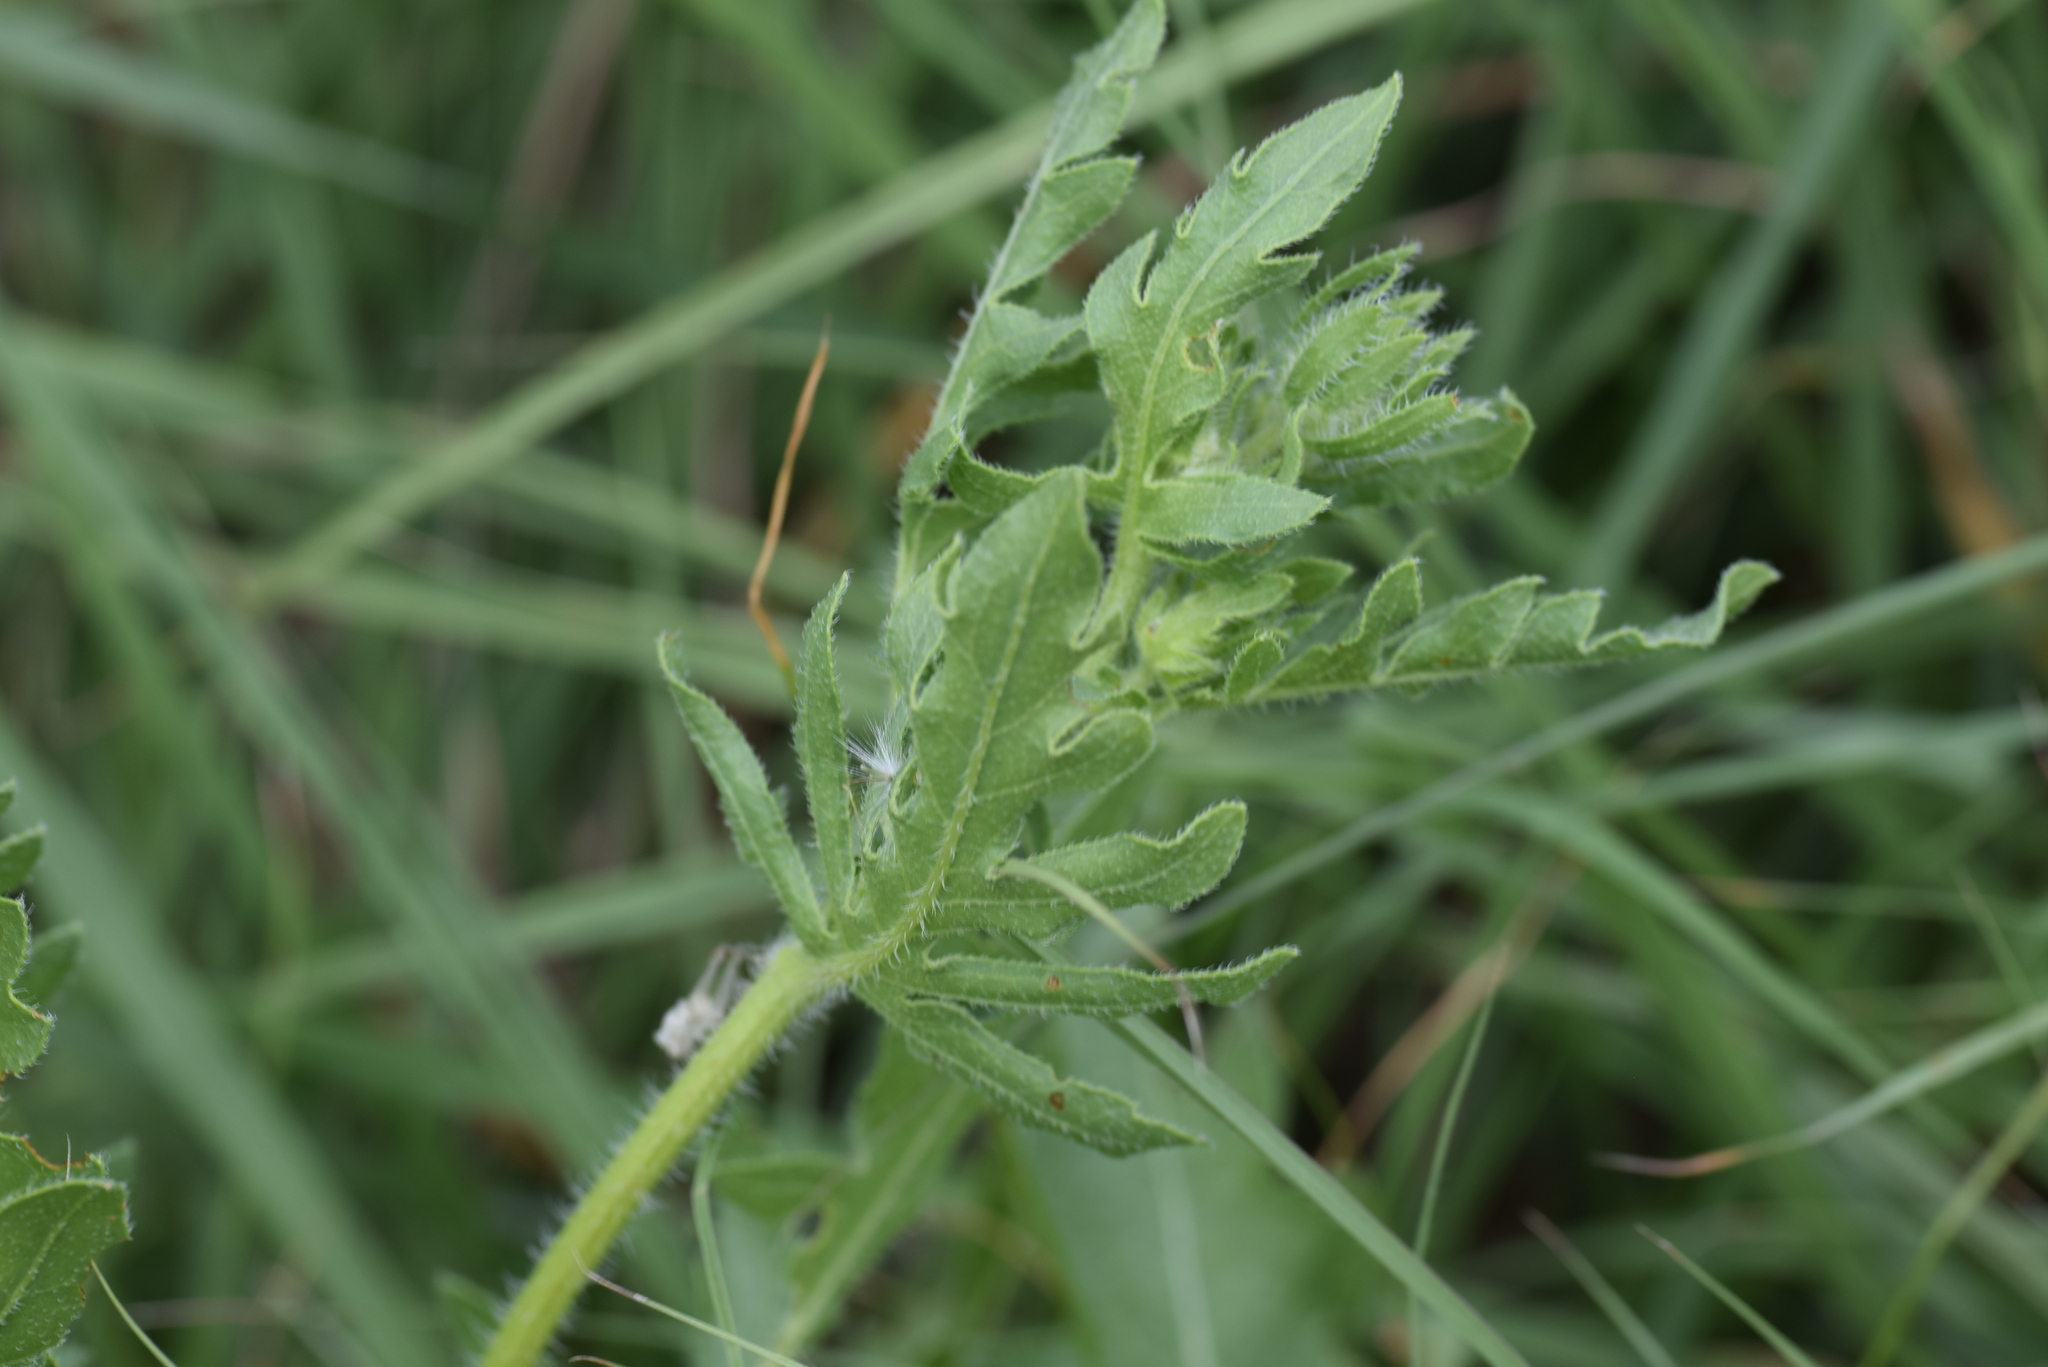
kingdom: Plantae
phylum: Tracheophyta
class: Magnoliopsida
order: Asterales
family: Asteraceae
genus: Engelmannia
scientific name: Engelmannia peristenia
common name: Engelmann's daisy
